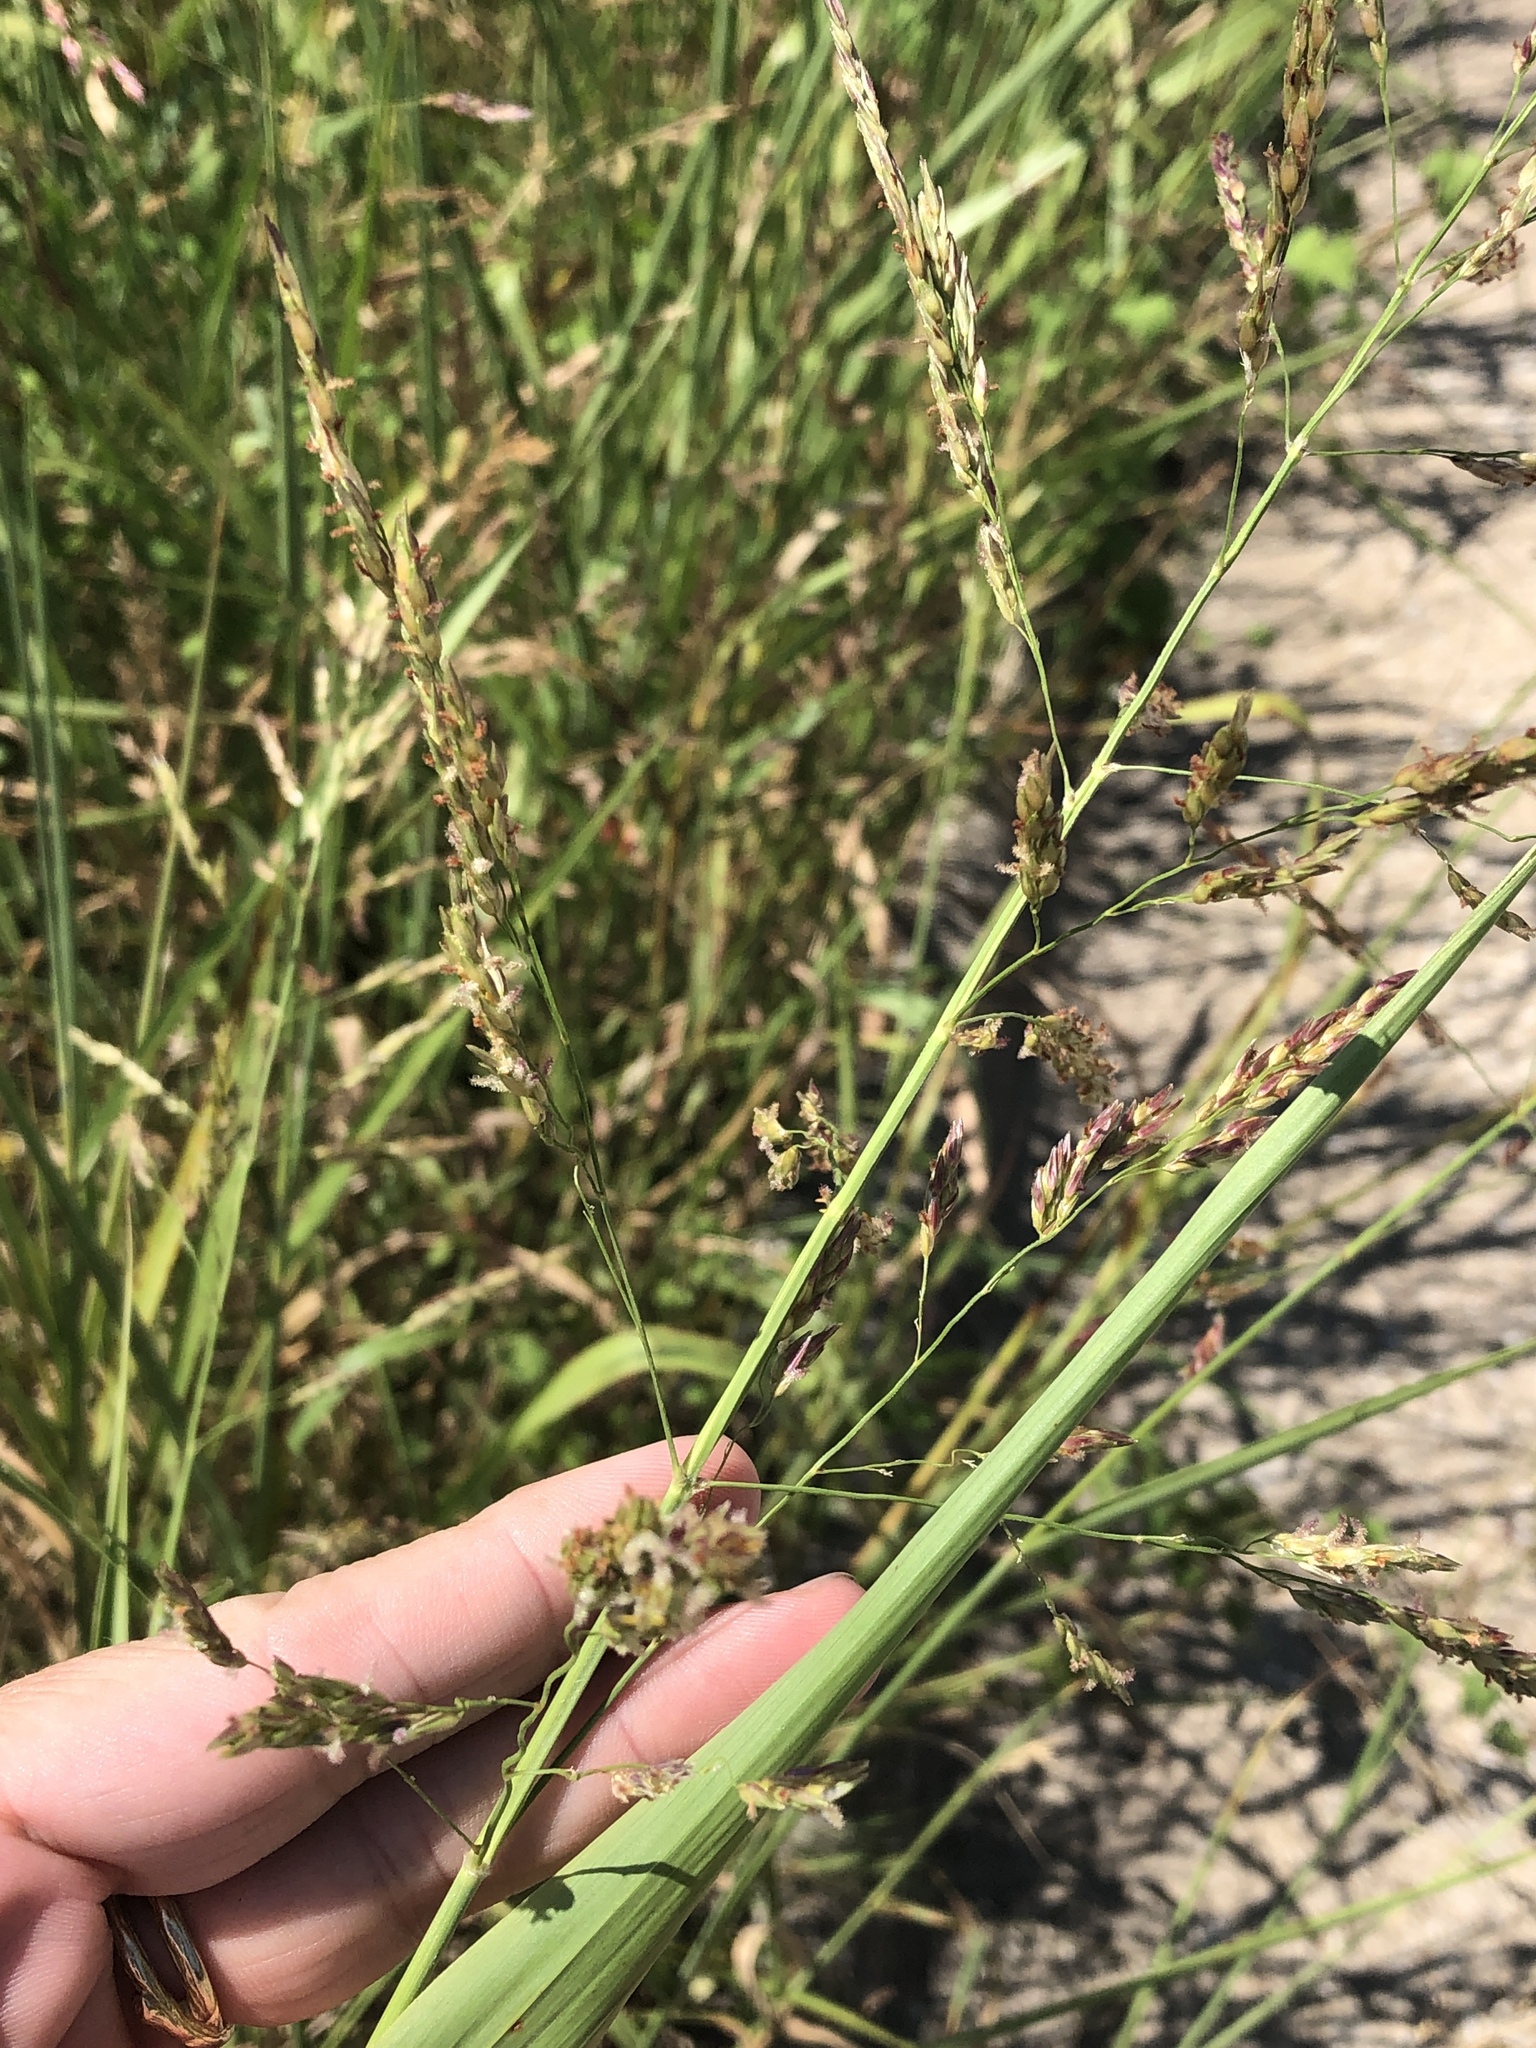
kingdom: Plantae
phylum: Tracheophyta
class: Liliopsida
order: Poales
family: Poaceae
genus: Sorghum
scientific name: Sorghum halepense
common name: Johnson-grass
